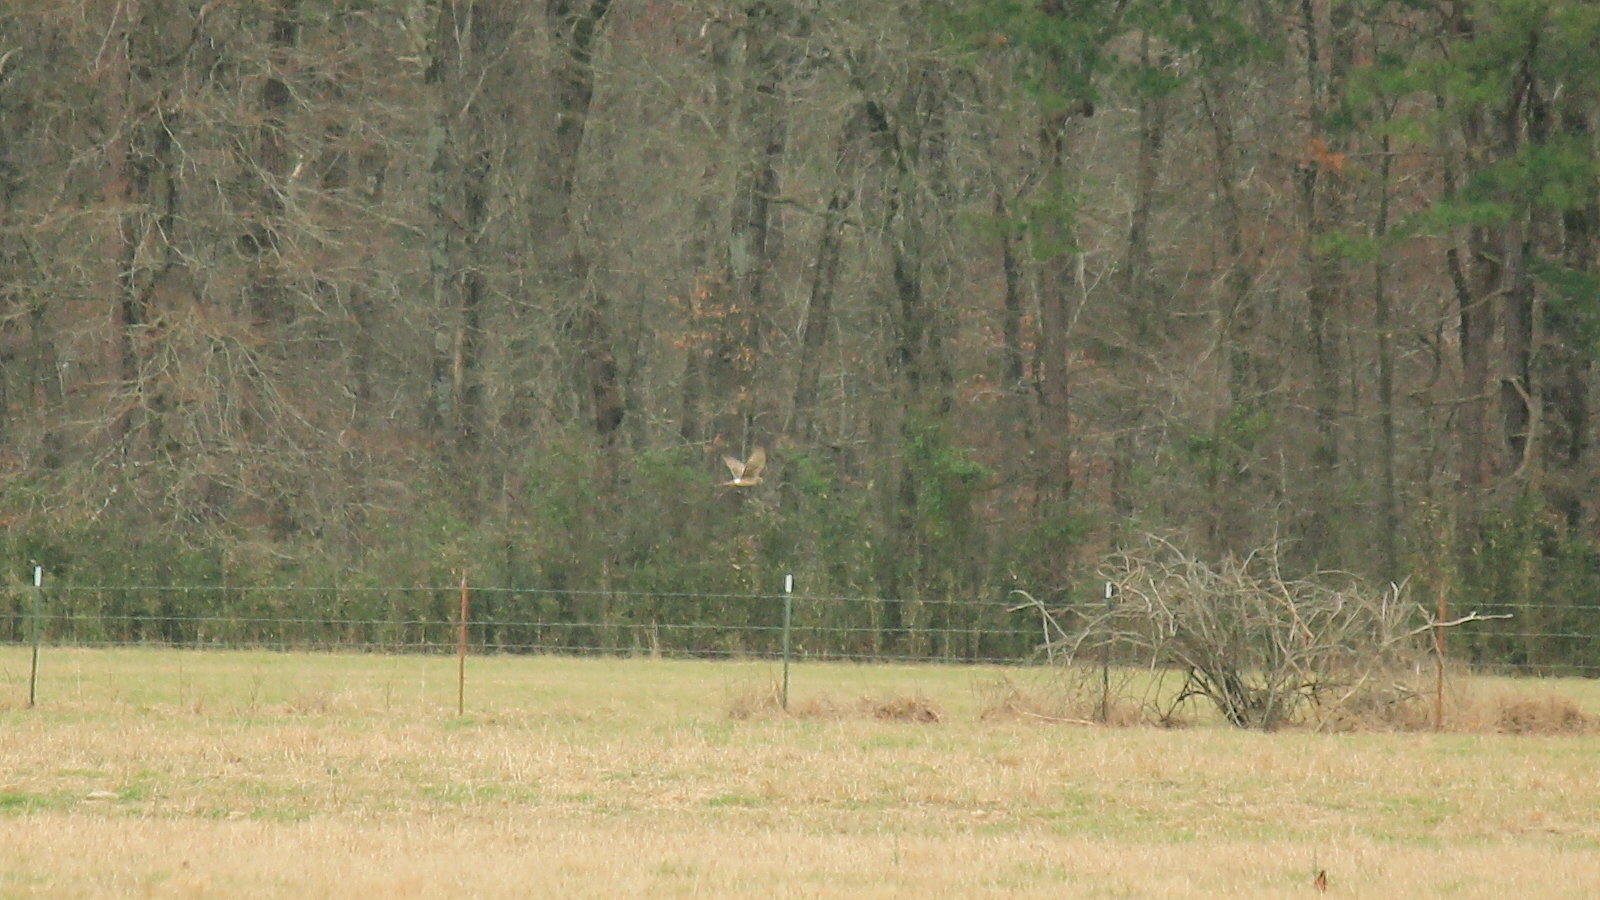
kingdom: Animalia
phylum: Chordata
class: Aves
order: Accipitriformes
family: Accipitridae
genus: Circus
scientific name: Circus cyaneus
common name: Hen harrier
